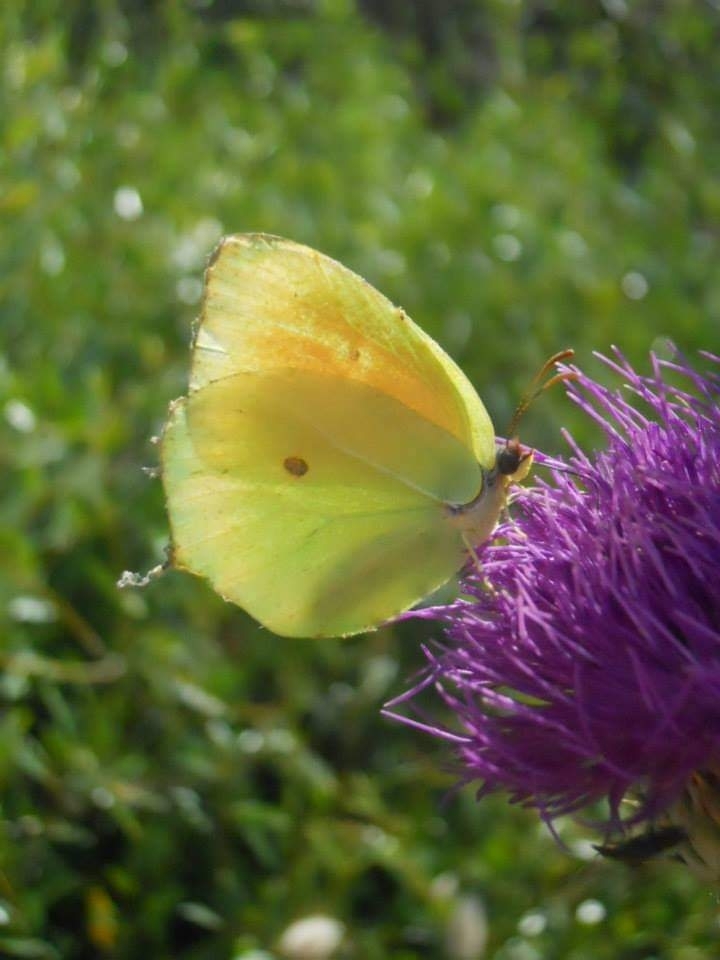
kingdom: Animalia
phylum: Arthropoda
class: Insecta
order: Lepidoptera
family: Pieridae
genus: Gonepteryx
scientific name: Gonepteryx cleopatra
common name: Cleopatra
